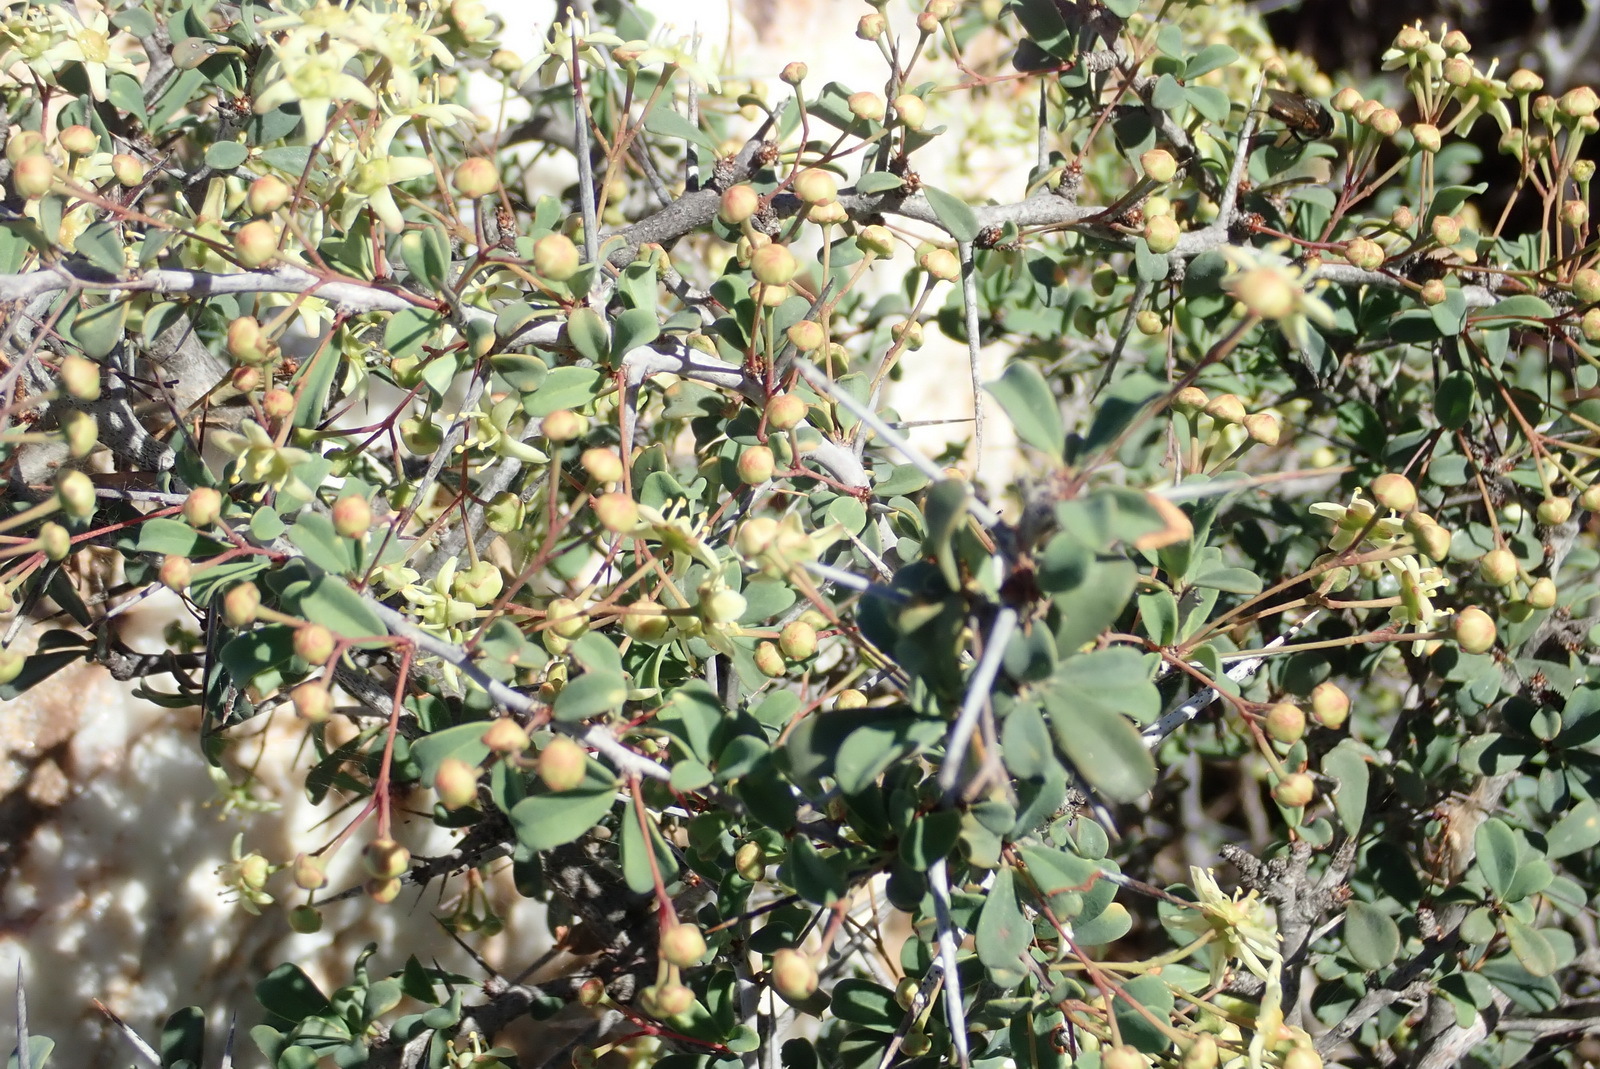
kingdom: Plantae
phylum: Tracheophyta
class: Magnoliopsida
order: Celastrales
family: Celastraceae
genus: Putterlickia
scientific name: Putterlickia pyracantha
